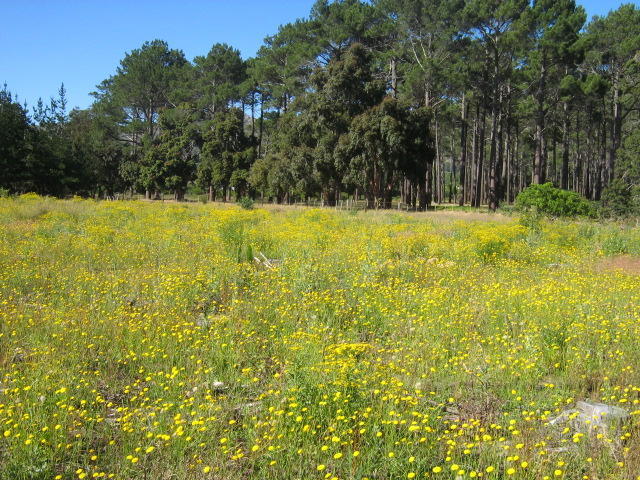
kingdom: Plantae
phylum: Tracheophyta
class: Magnoliopsida
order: Asterales
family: Asteraceae
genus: Hypochaeris
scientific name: Hypochaeris radicata
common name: Flatweed
